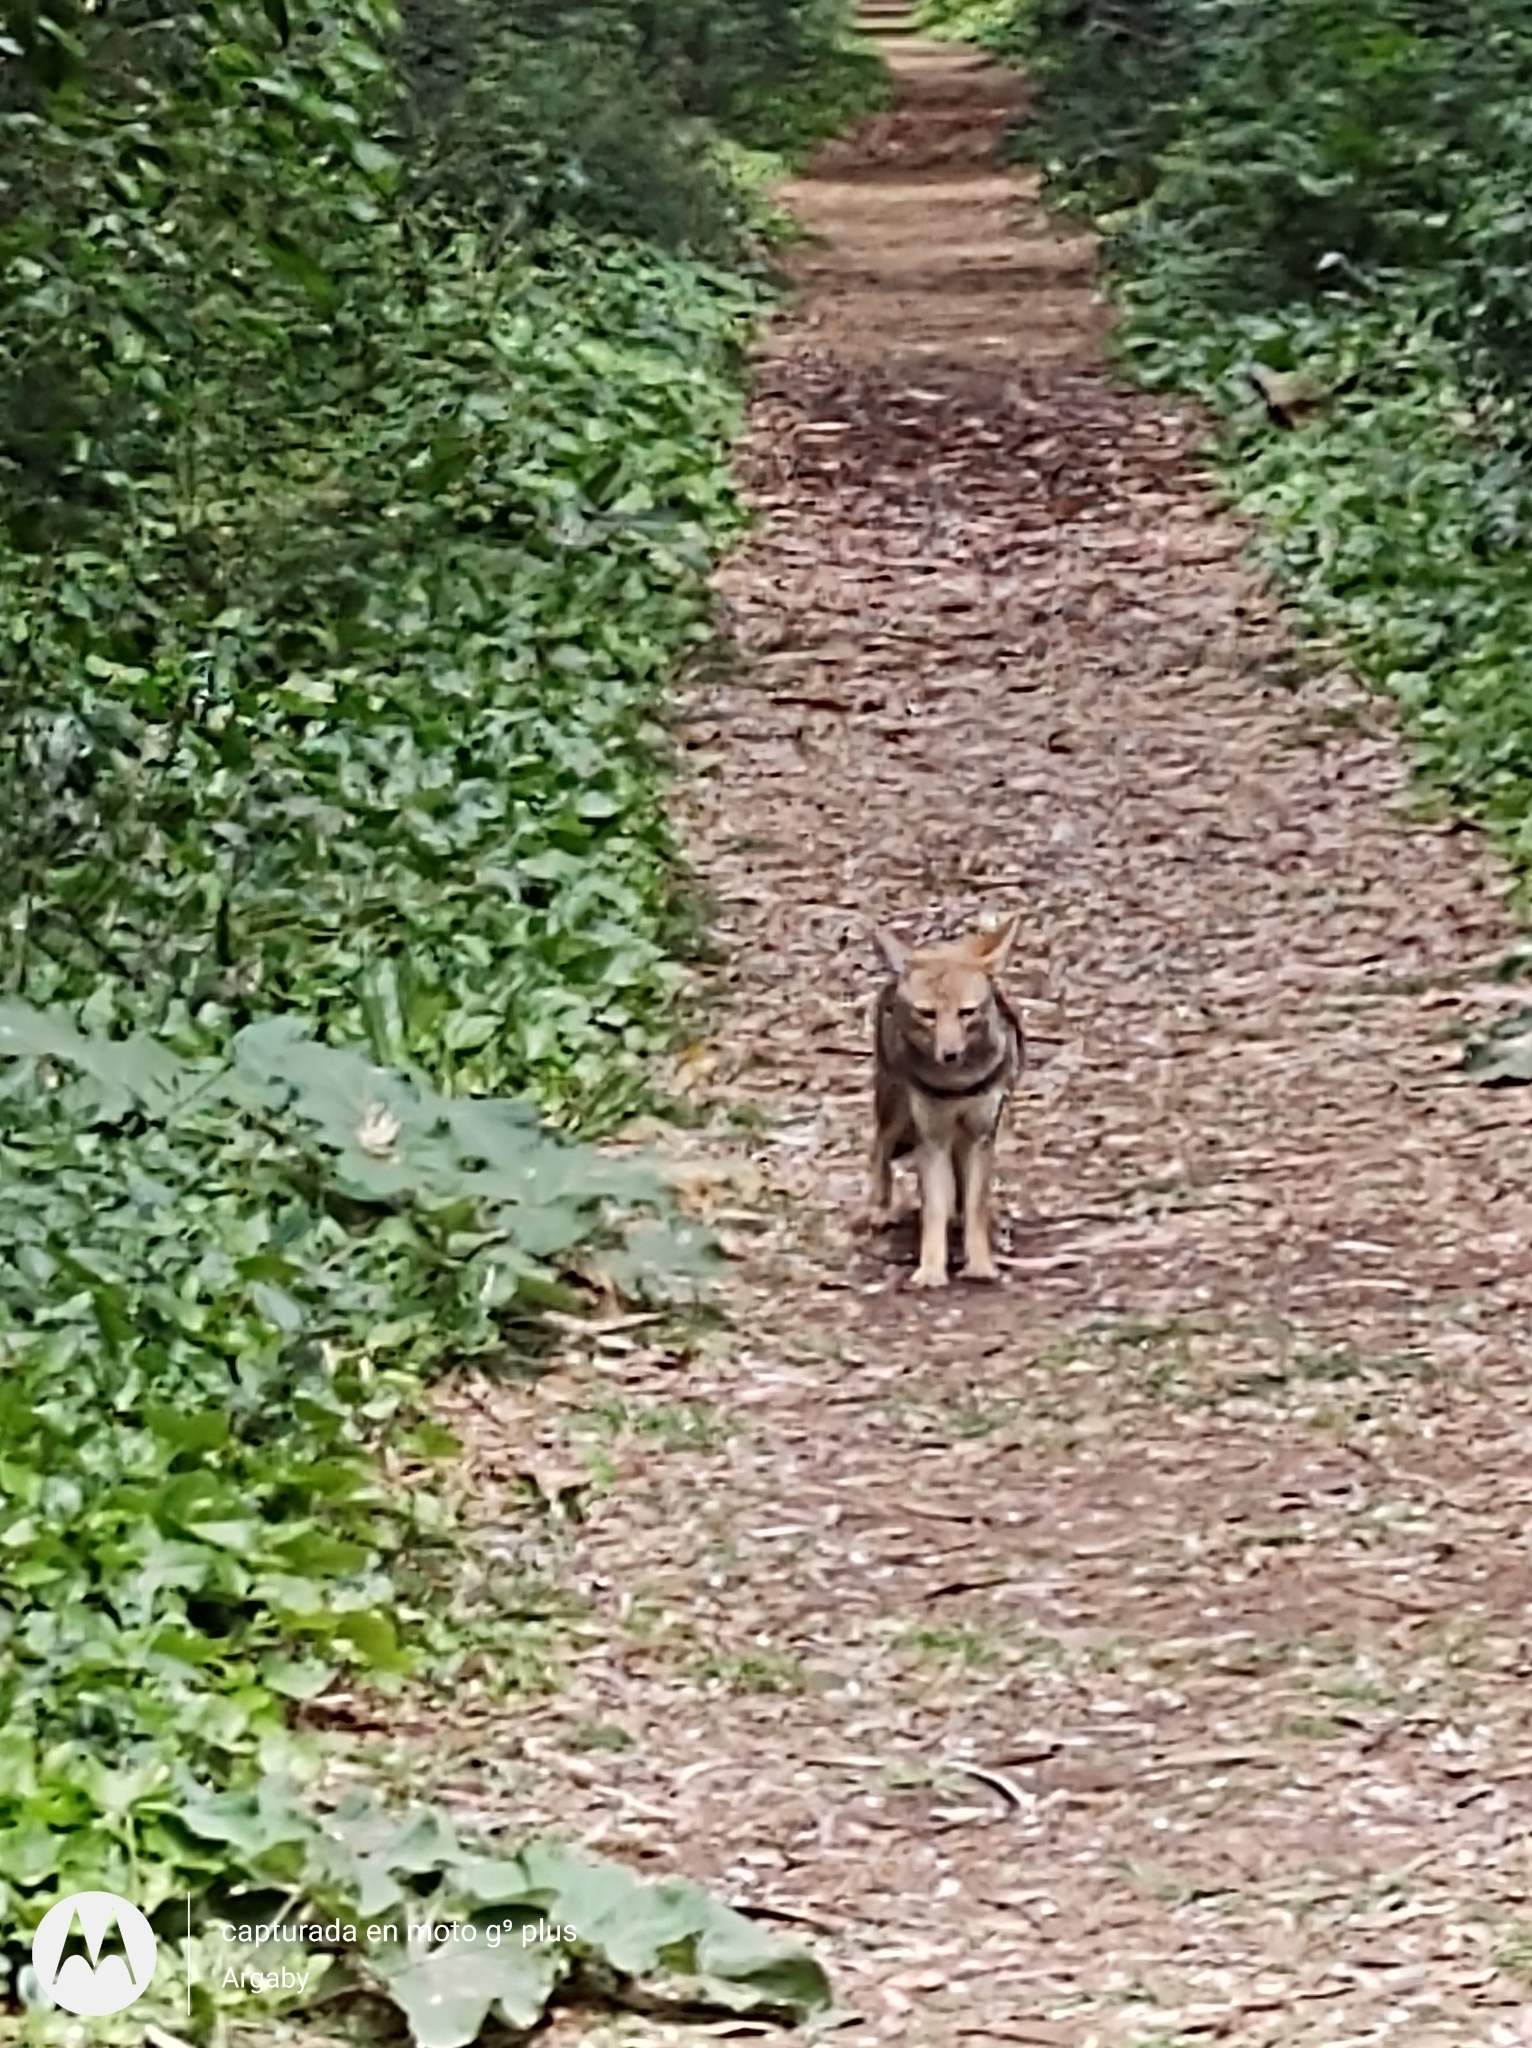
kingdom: Animalia
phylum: Chordata
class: Mammalia
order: Carnivora
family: Canidae
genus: Lycalopex
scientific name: Lycalopex gymnocercus
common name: Pampas fox
